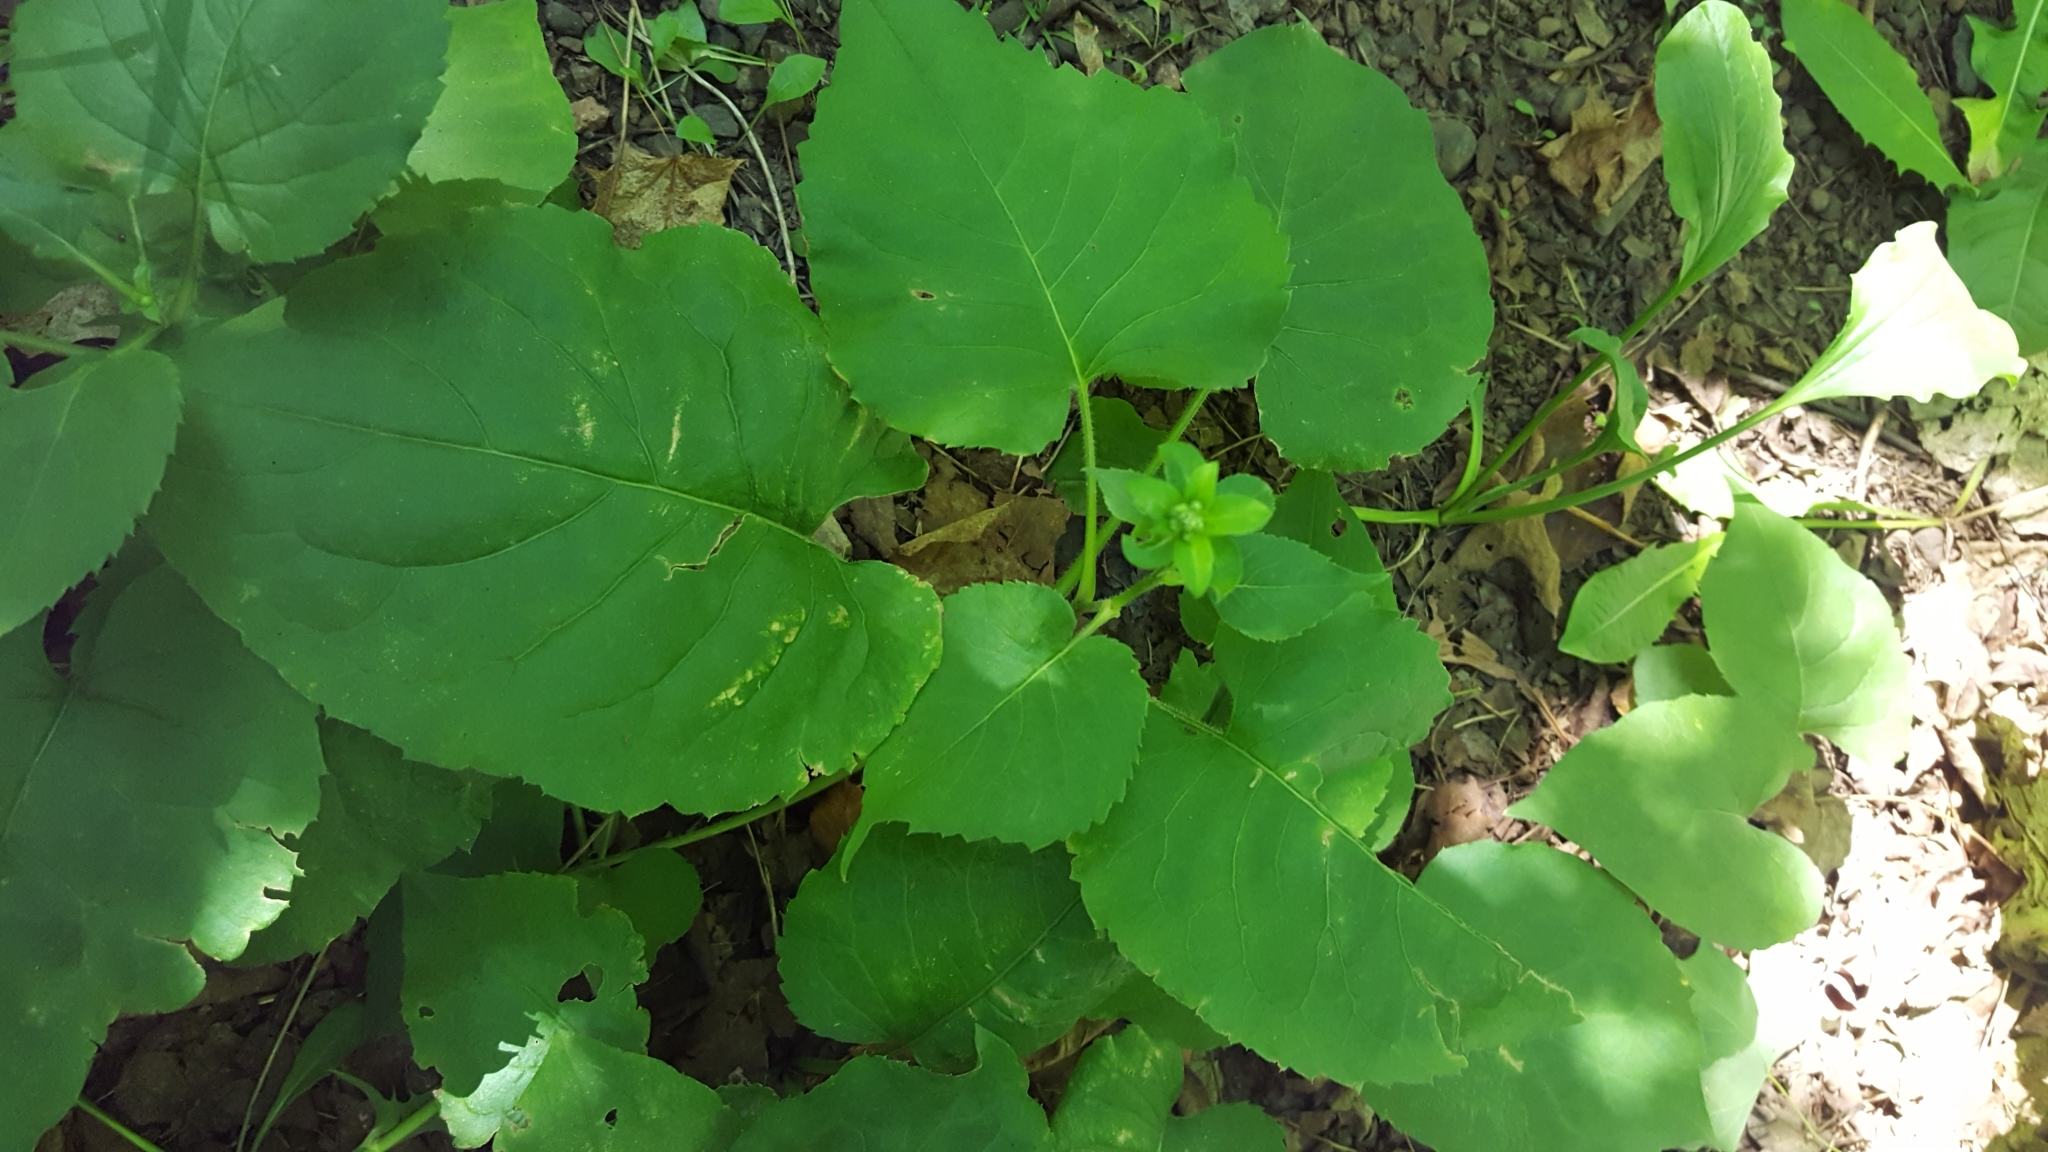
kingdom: Plantae
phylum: Tracheophyta
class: Magnoliopsida
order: Asterales
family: Asteraceae
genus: Eurybia
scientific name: Eurybia macrophylla
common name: Big-leaved aster
